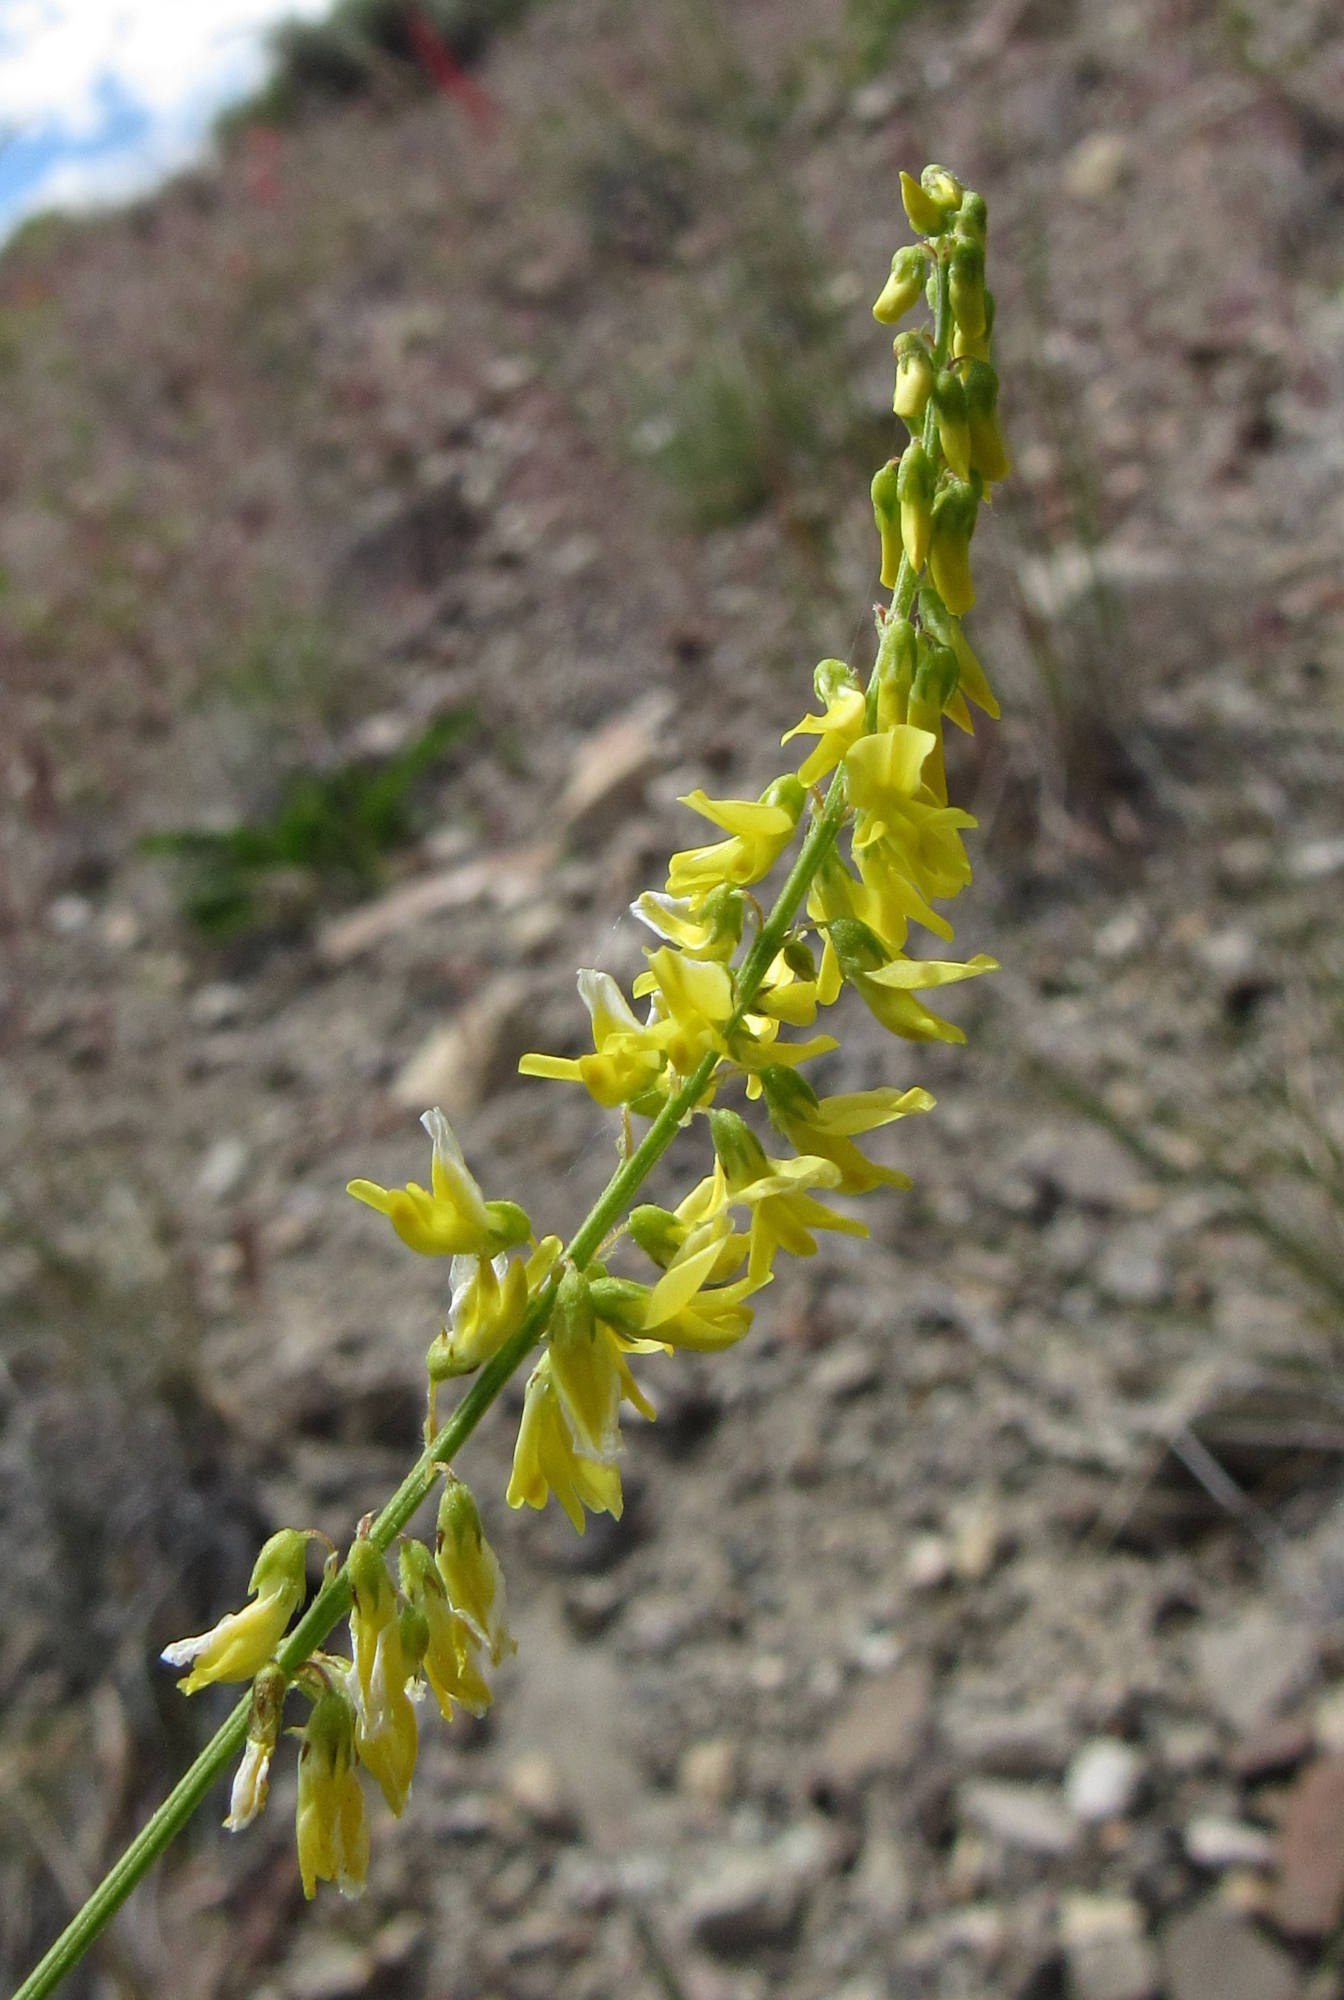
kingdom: Plantae
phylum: Tracheophyta
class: Magnoliopsida
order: Fabales
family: Fabaceae
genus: Melilotus
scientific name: Melilotus officinalis
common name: Sweetclover
